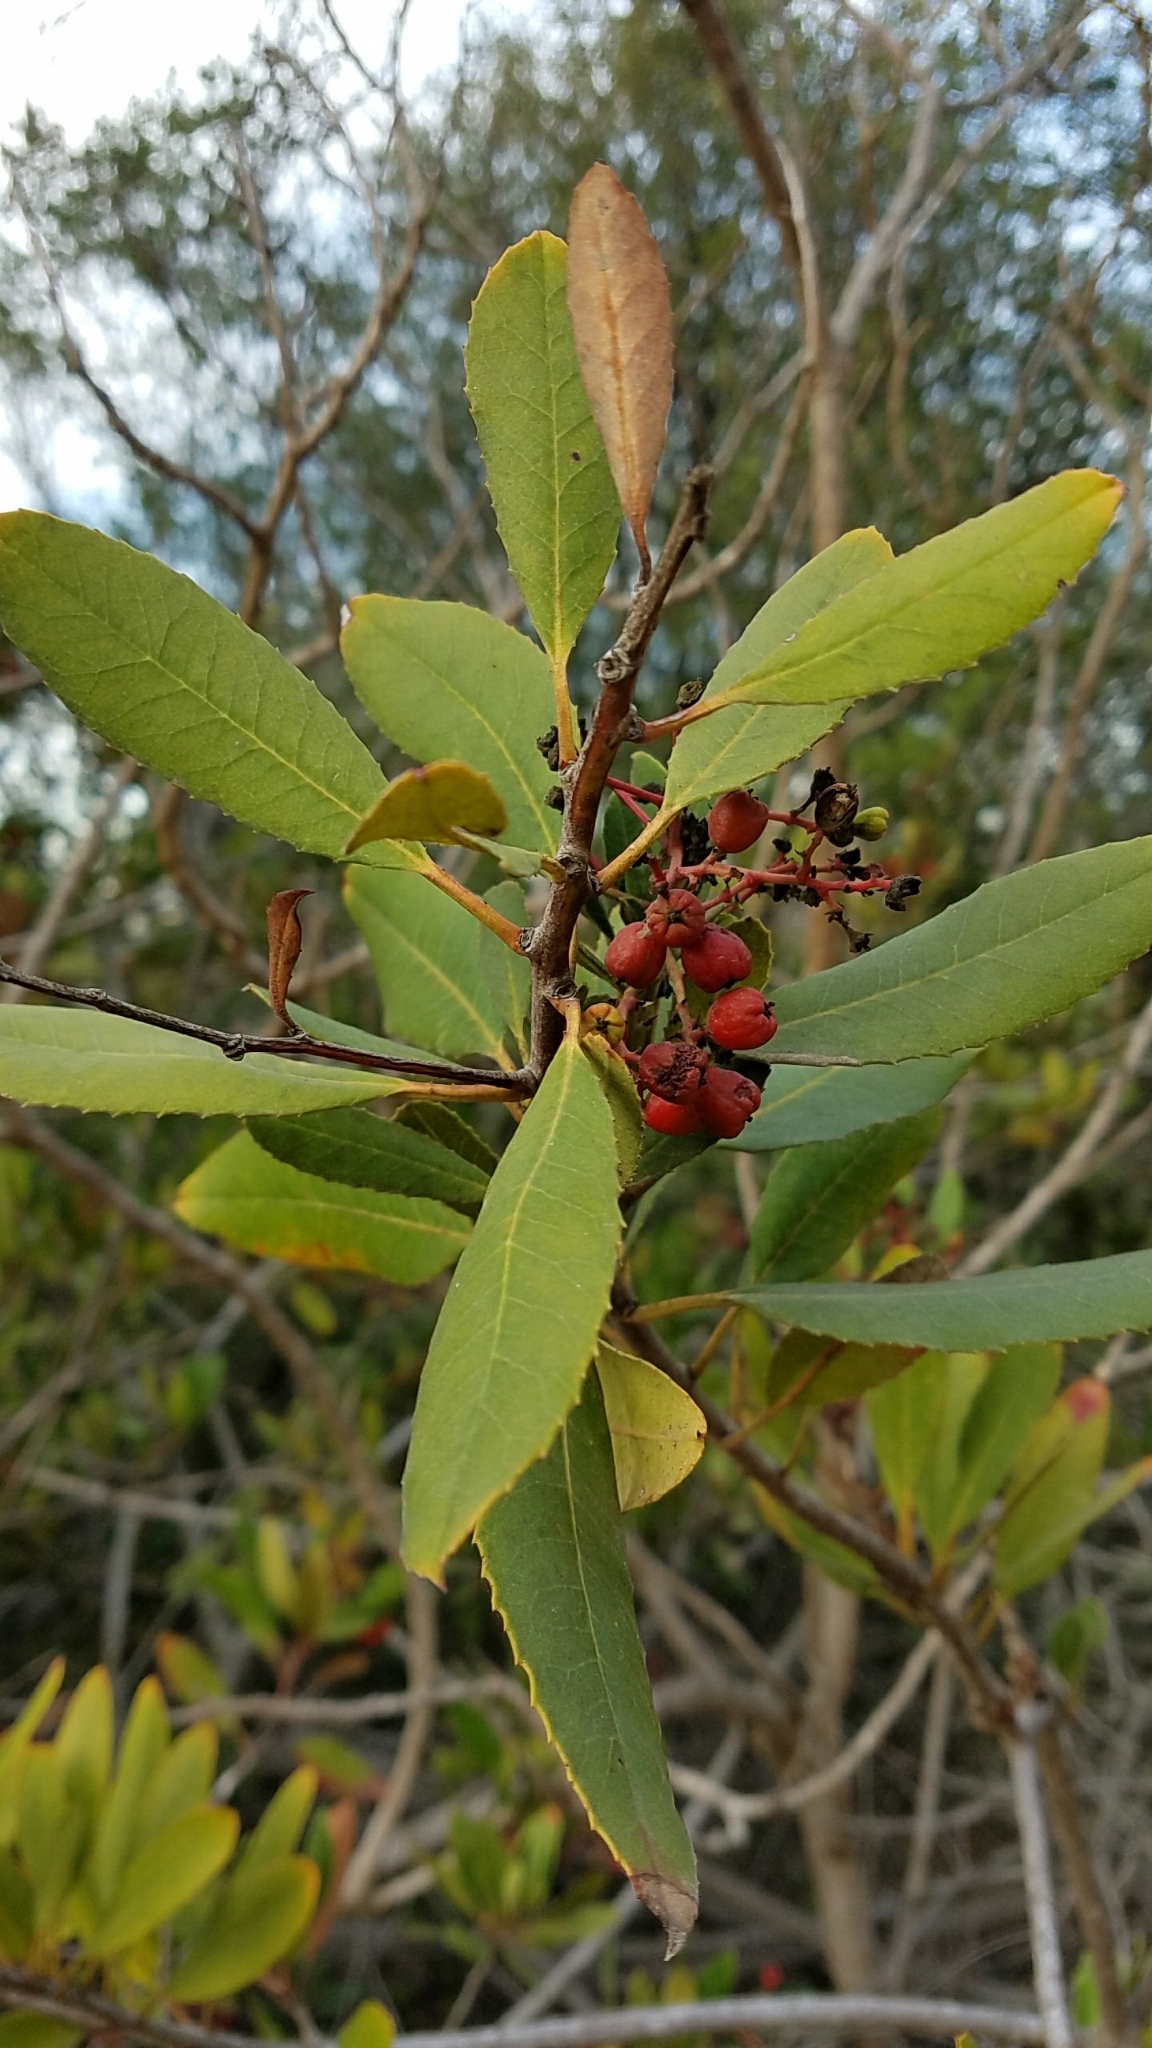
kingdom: Plantae
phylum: Tracheophyta
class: Magnoliopsida
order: Rosales
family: Rosaceae
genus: Heteromeles
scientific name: Heteromeles arbutifolia
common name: California-holly
